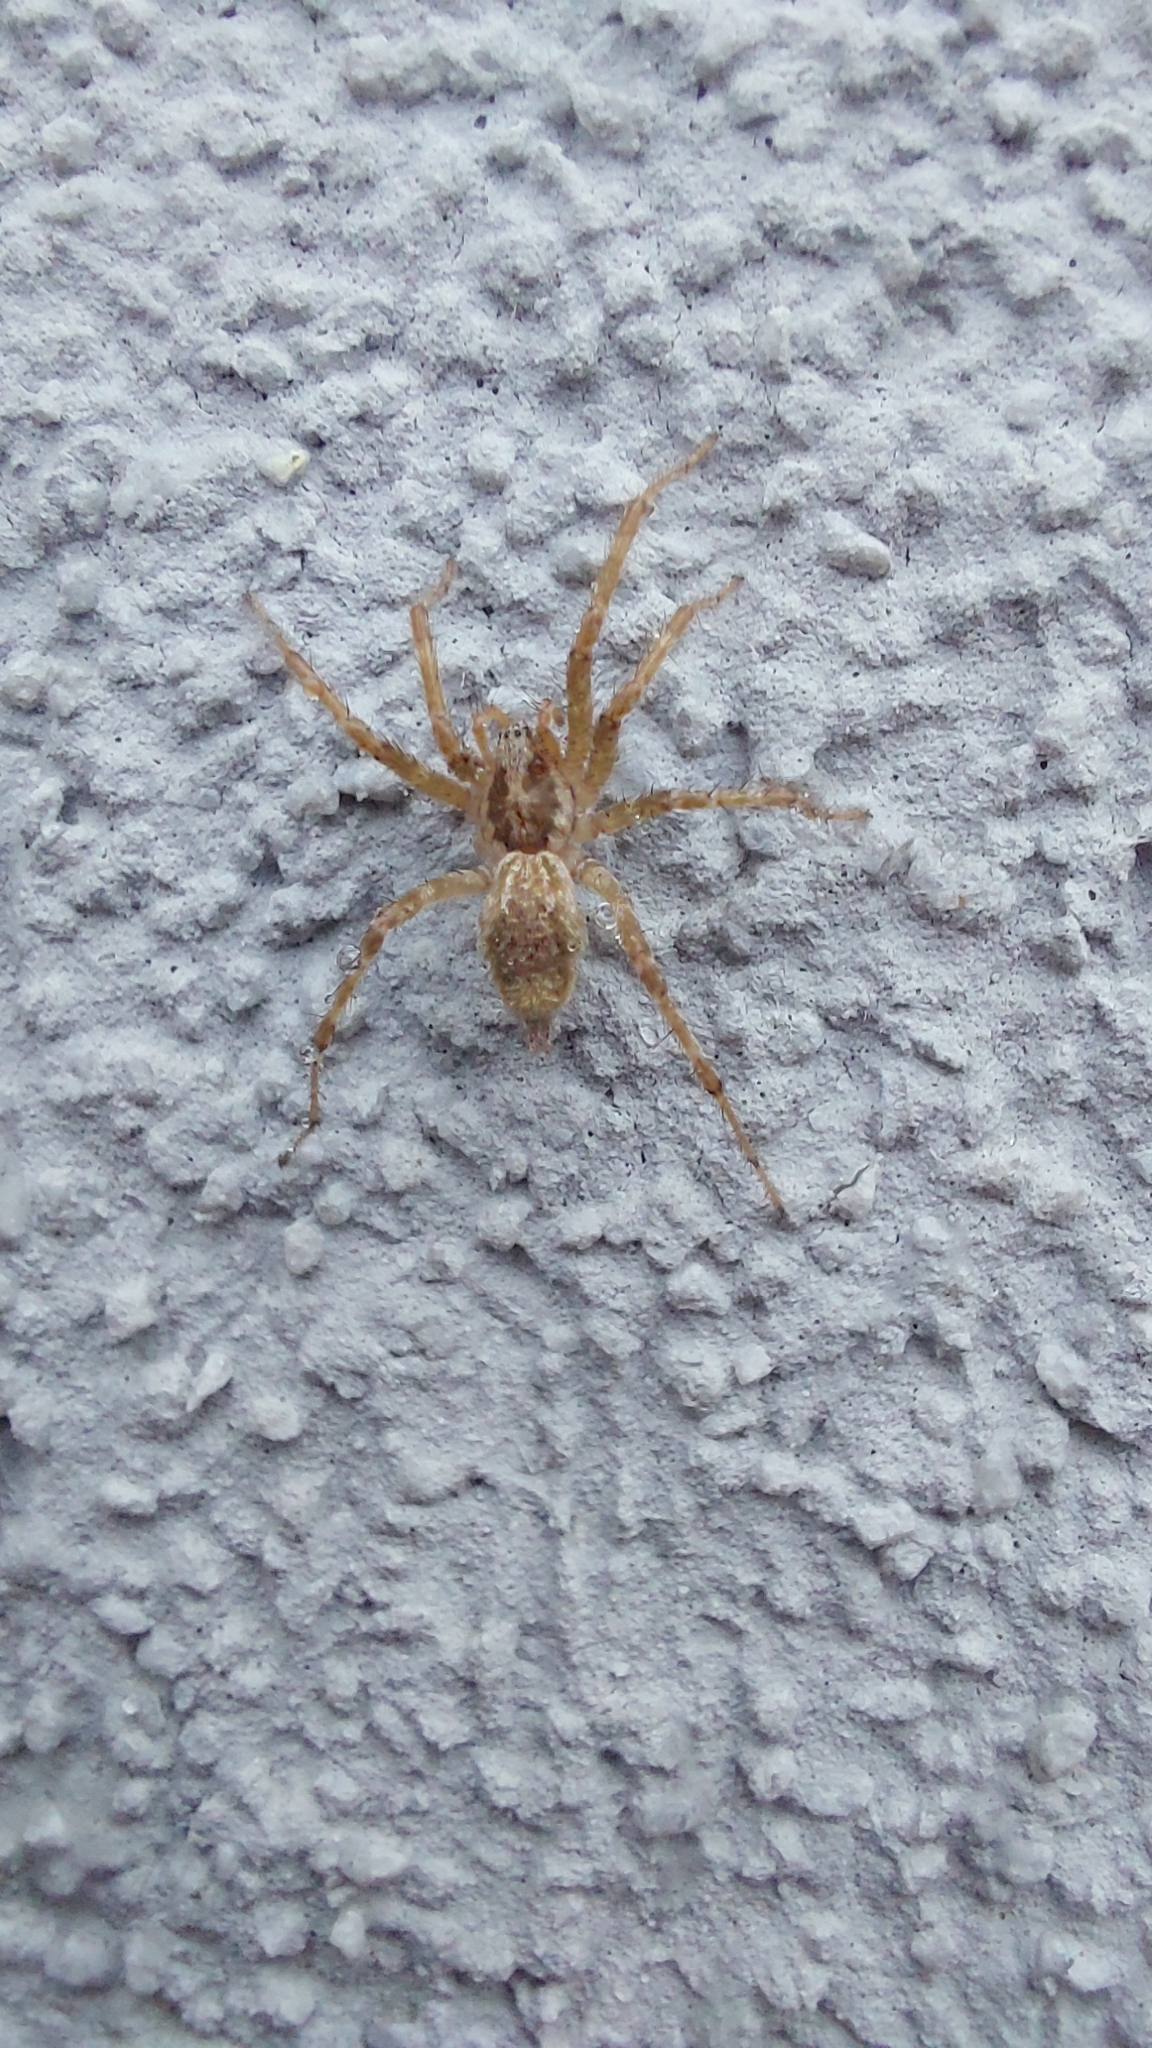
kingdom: Animalia
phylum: Arthropoda
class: Arachnida
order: Araneae
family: Agelenidae
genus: Allagelena
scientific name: Allagelena gracilens
